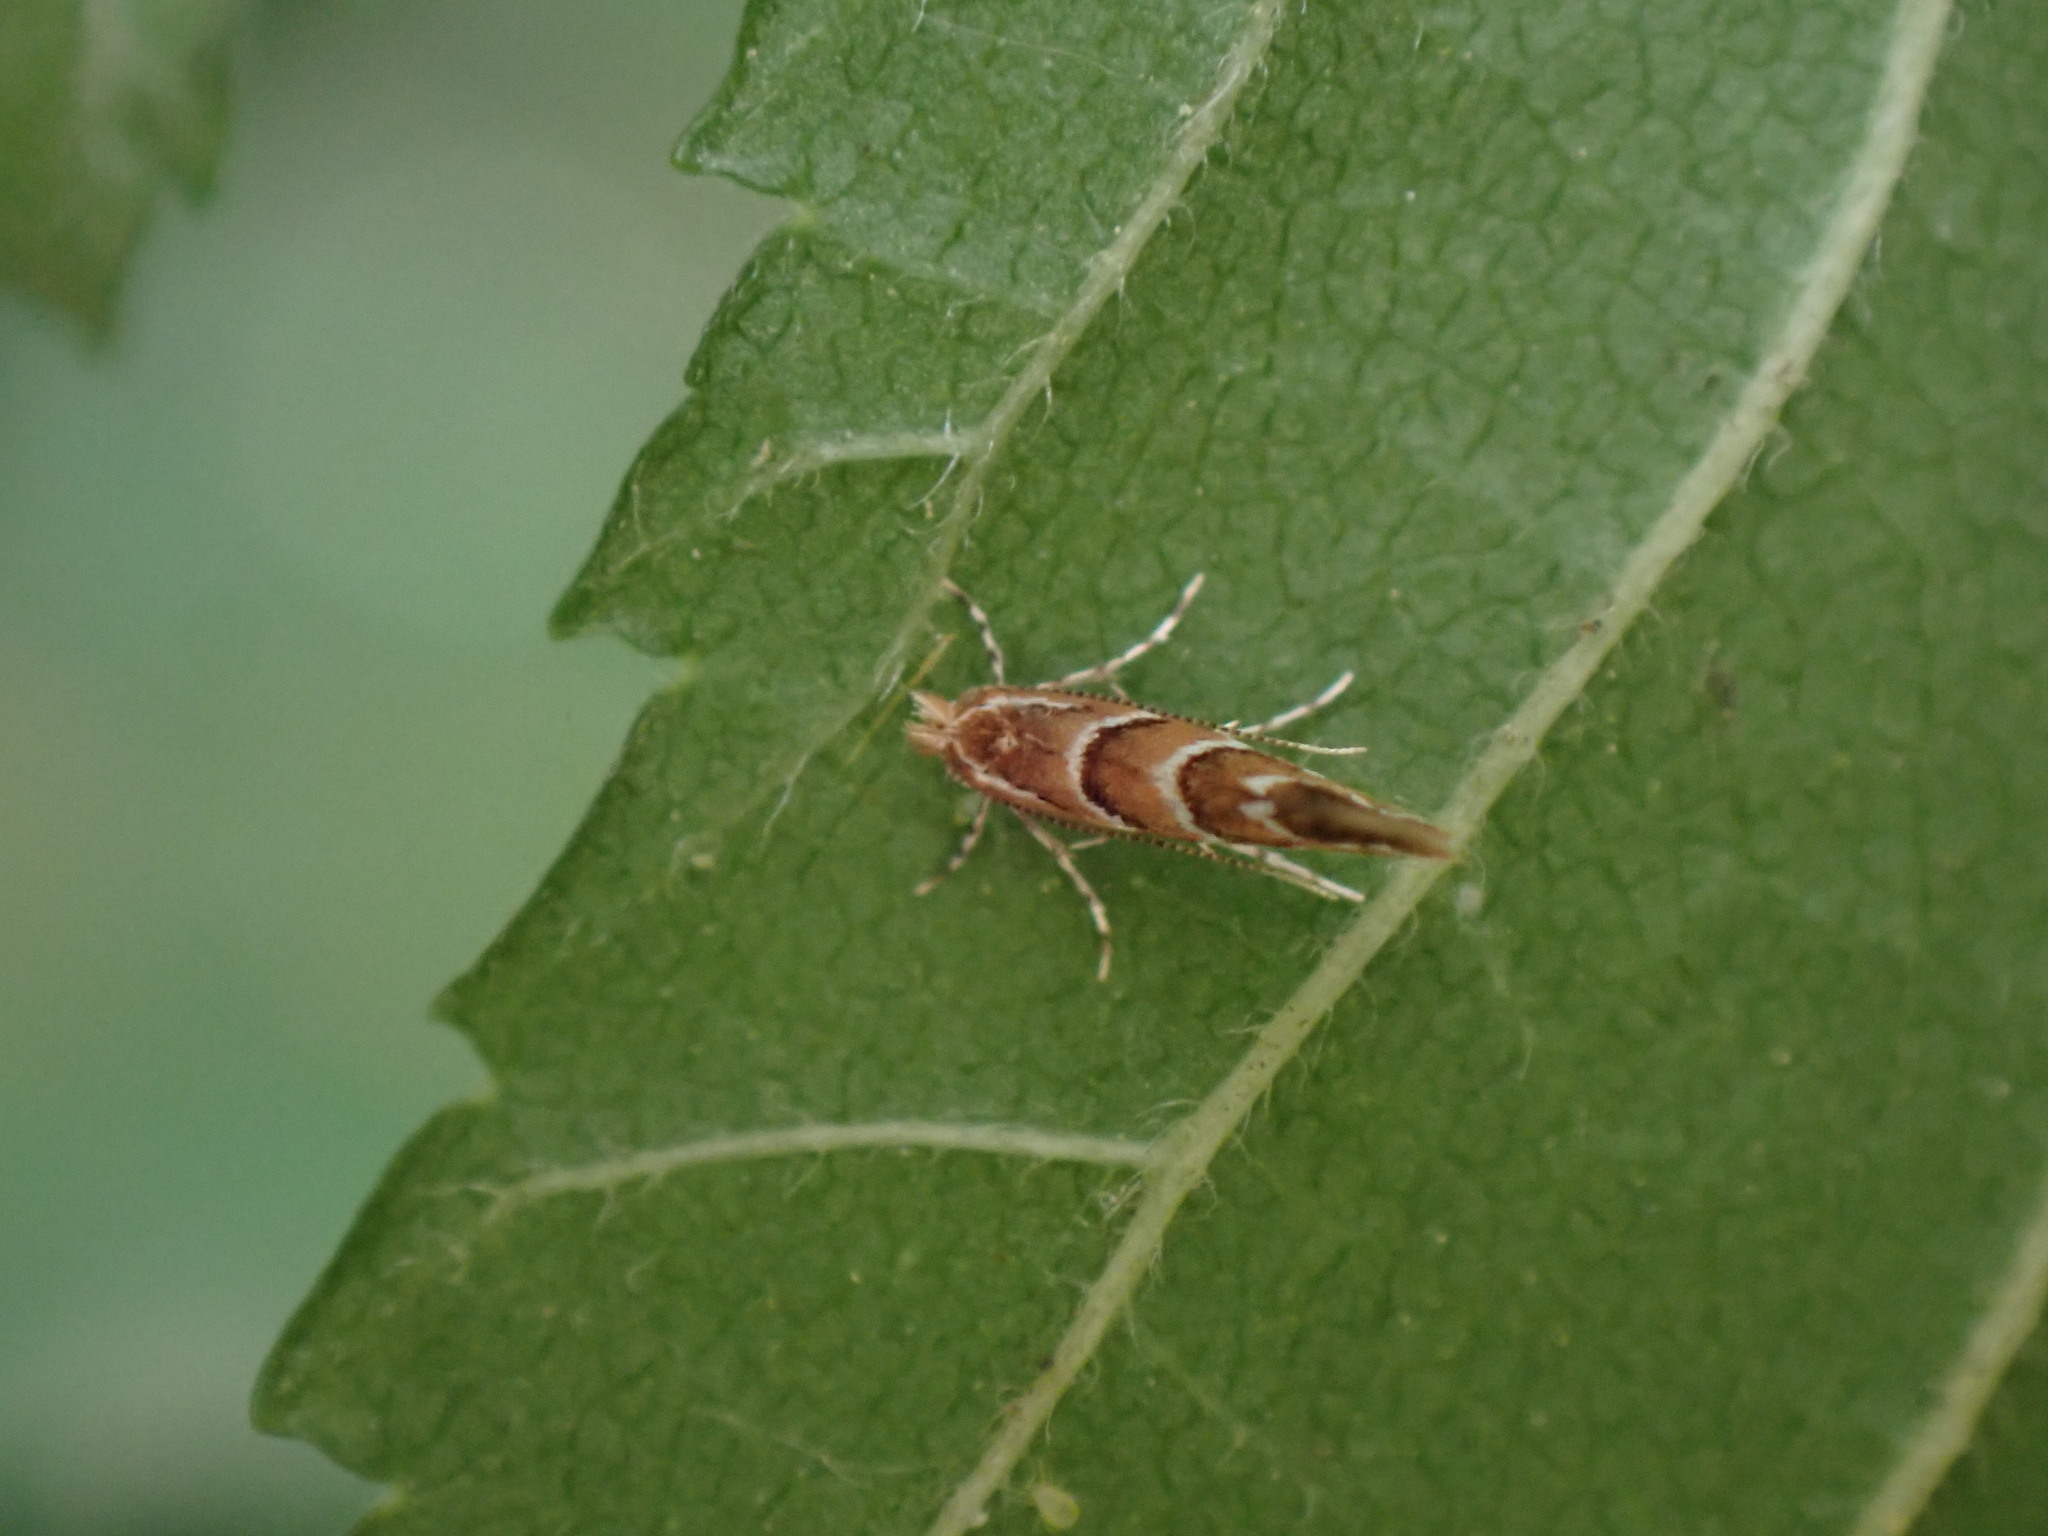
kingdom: Animalia
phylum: Arthropoda
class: Insecta
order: Lepidoptera
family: Gracillariidae
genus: Cameraria
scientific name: Cameraria ohridella
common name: Horse-chestnut leaf-miner
